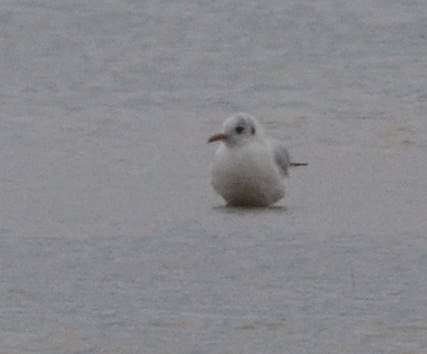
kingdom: Animalia
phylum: Chordata
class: Aves
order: Charadriiformes
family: Laridae
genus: Chroicocephalus
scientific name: Chroicocephalus ridibundus
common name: Black-headed gull
